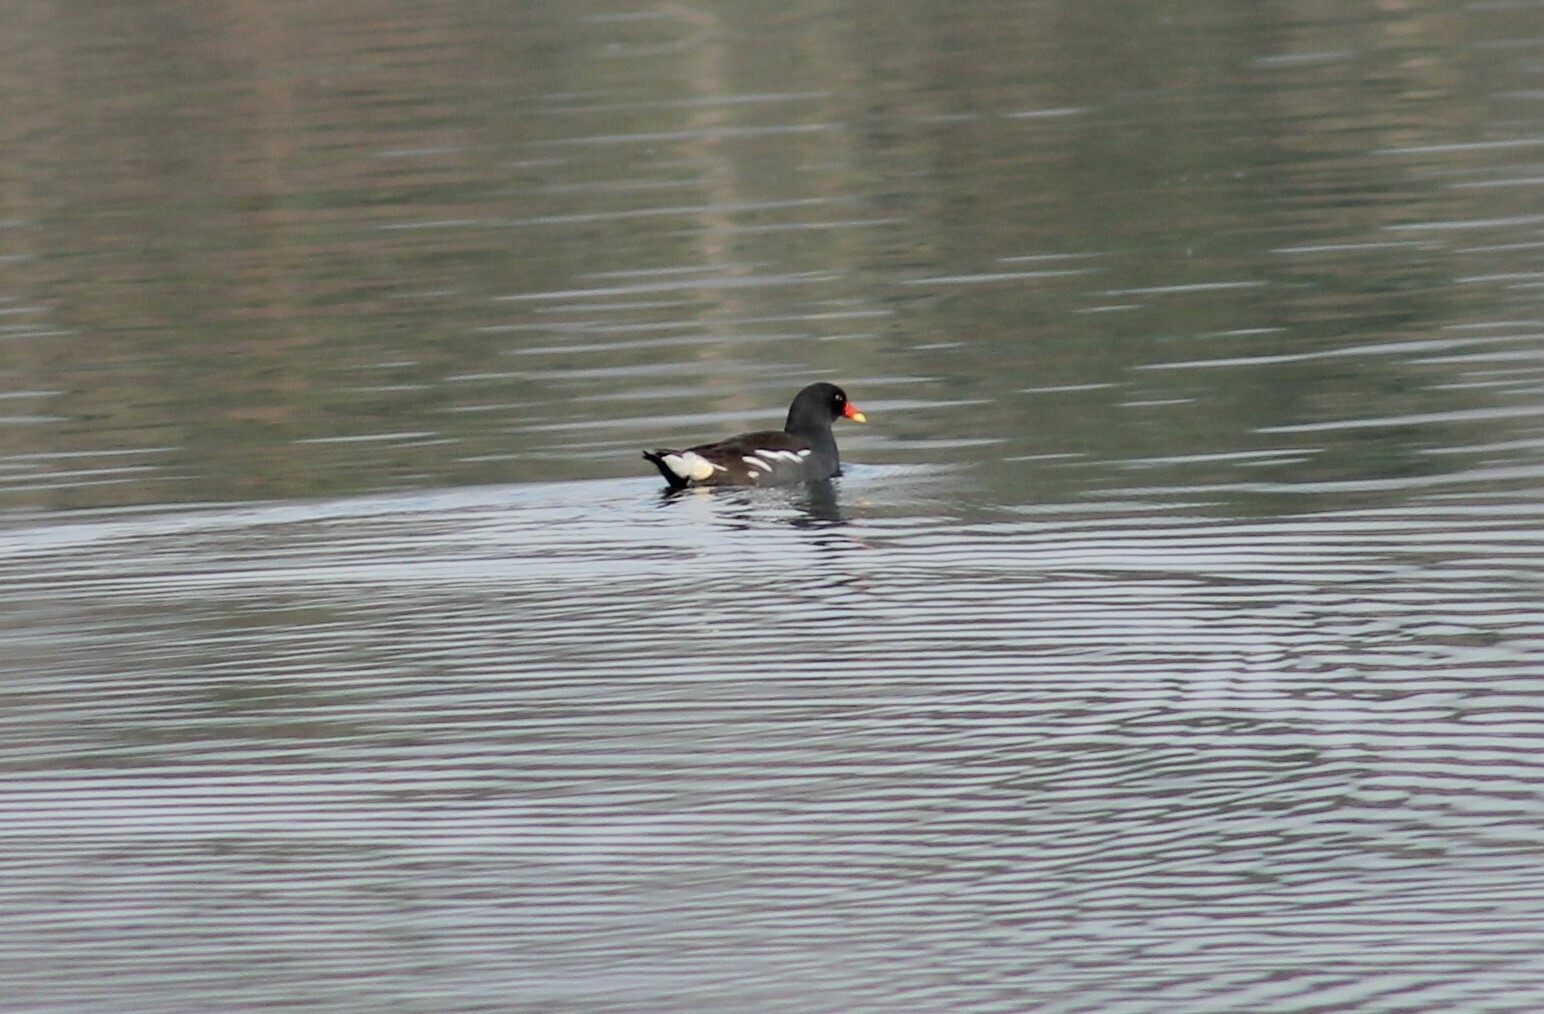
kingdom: Animalia
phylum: Chordata
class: Aves
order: Gruiformes
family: Rallidae
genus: Gallinula
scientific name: Gallinula chloropus
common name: Common moorhen
